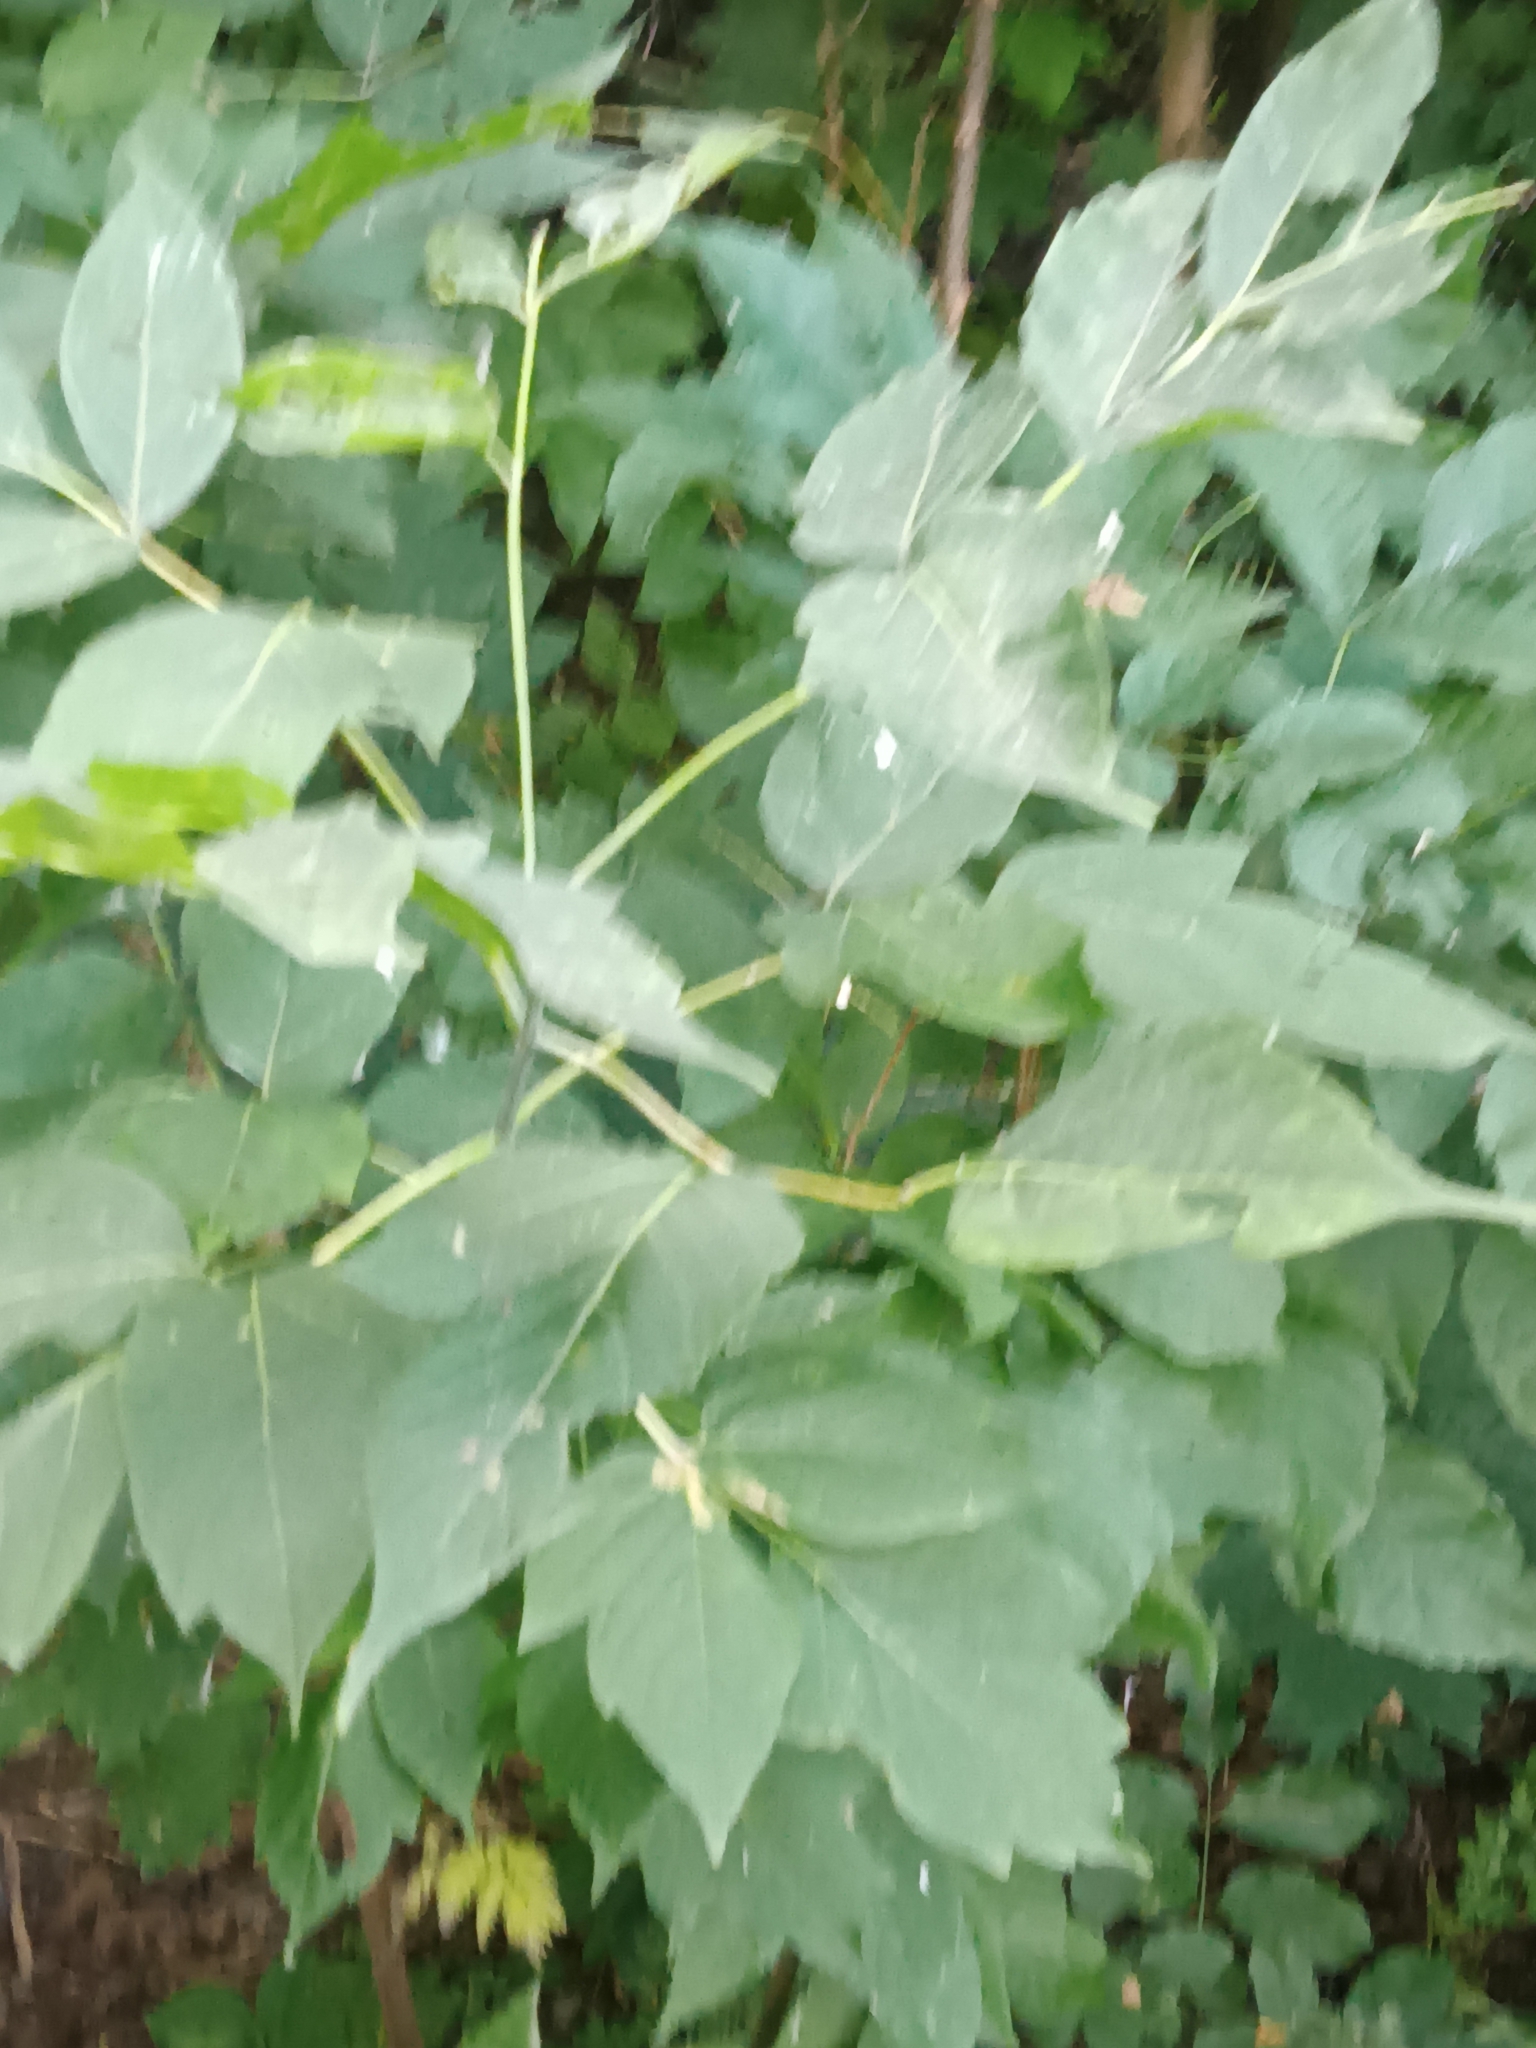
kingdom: Plantae
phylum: Tracheophyta
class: Magnoliopsida
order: Sapindales
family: Sapindaceae
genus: Acer
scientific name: Acer negundo
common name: Ashleaf maple
